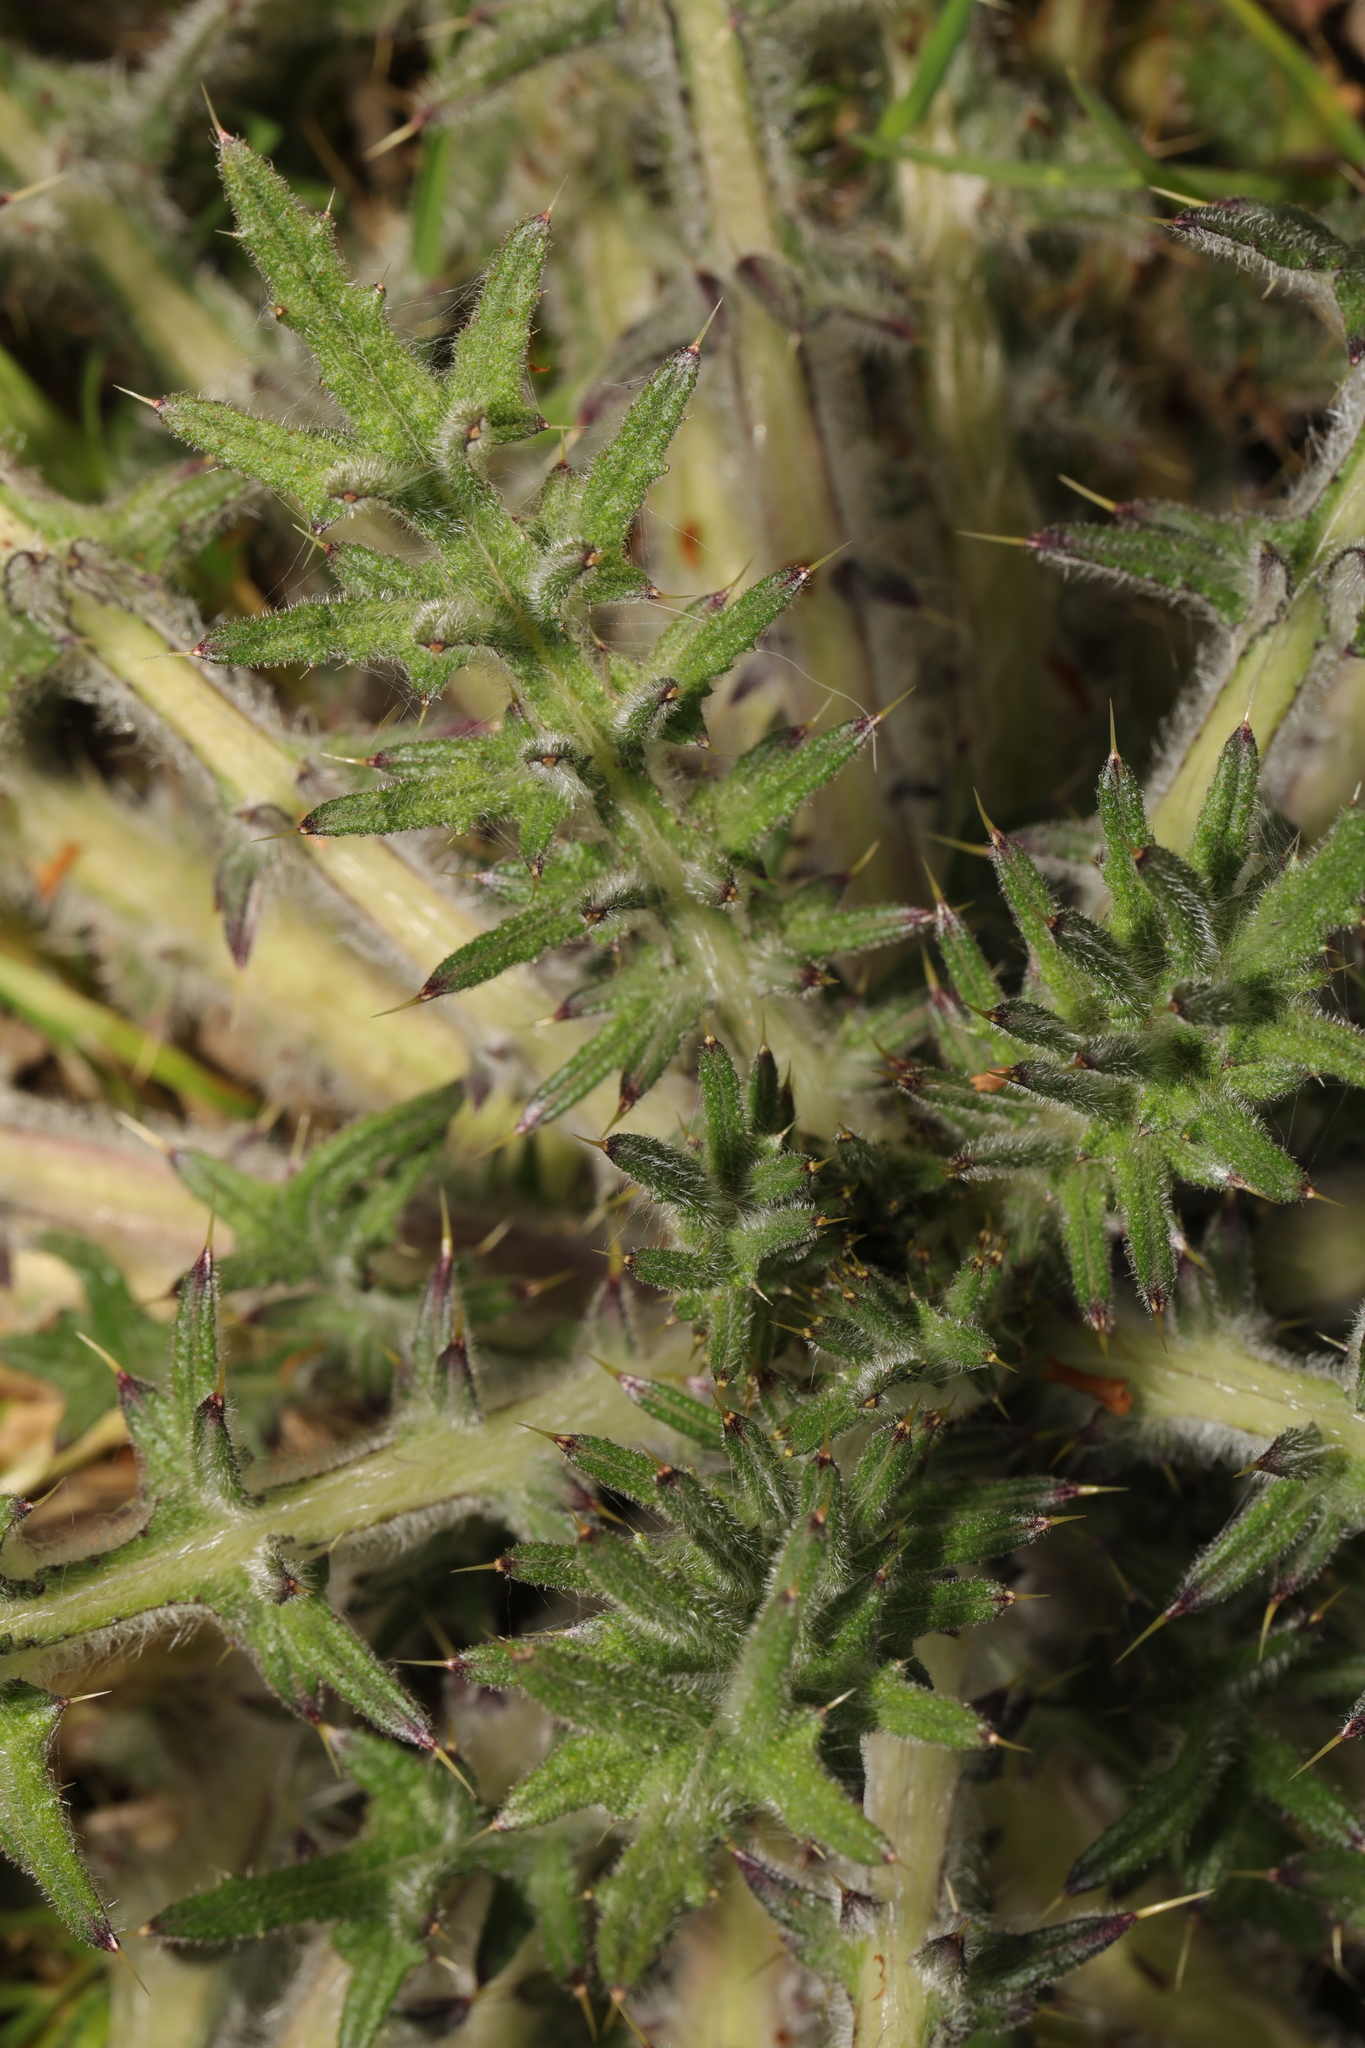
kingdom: Plantae
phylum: Tracheophyta
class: Magnoliopsida
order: Asterales
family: Asteraceae
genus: Cirsium
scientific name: Cirsium vulgare
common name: Bull thistle
